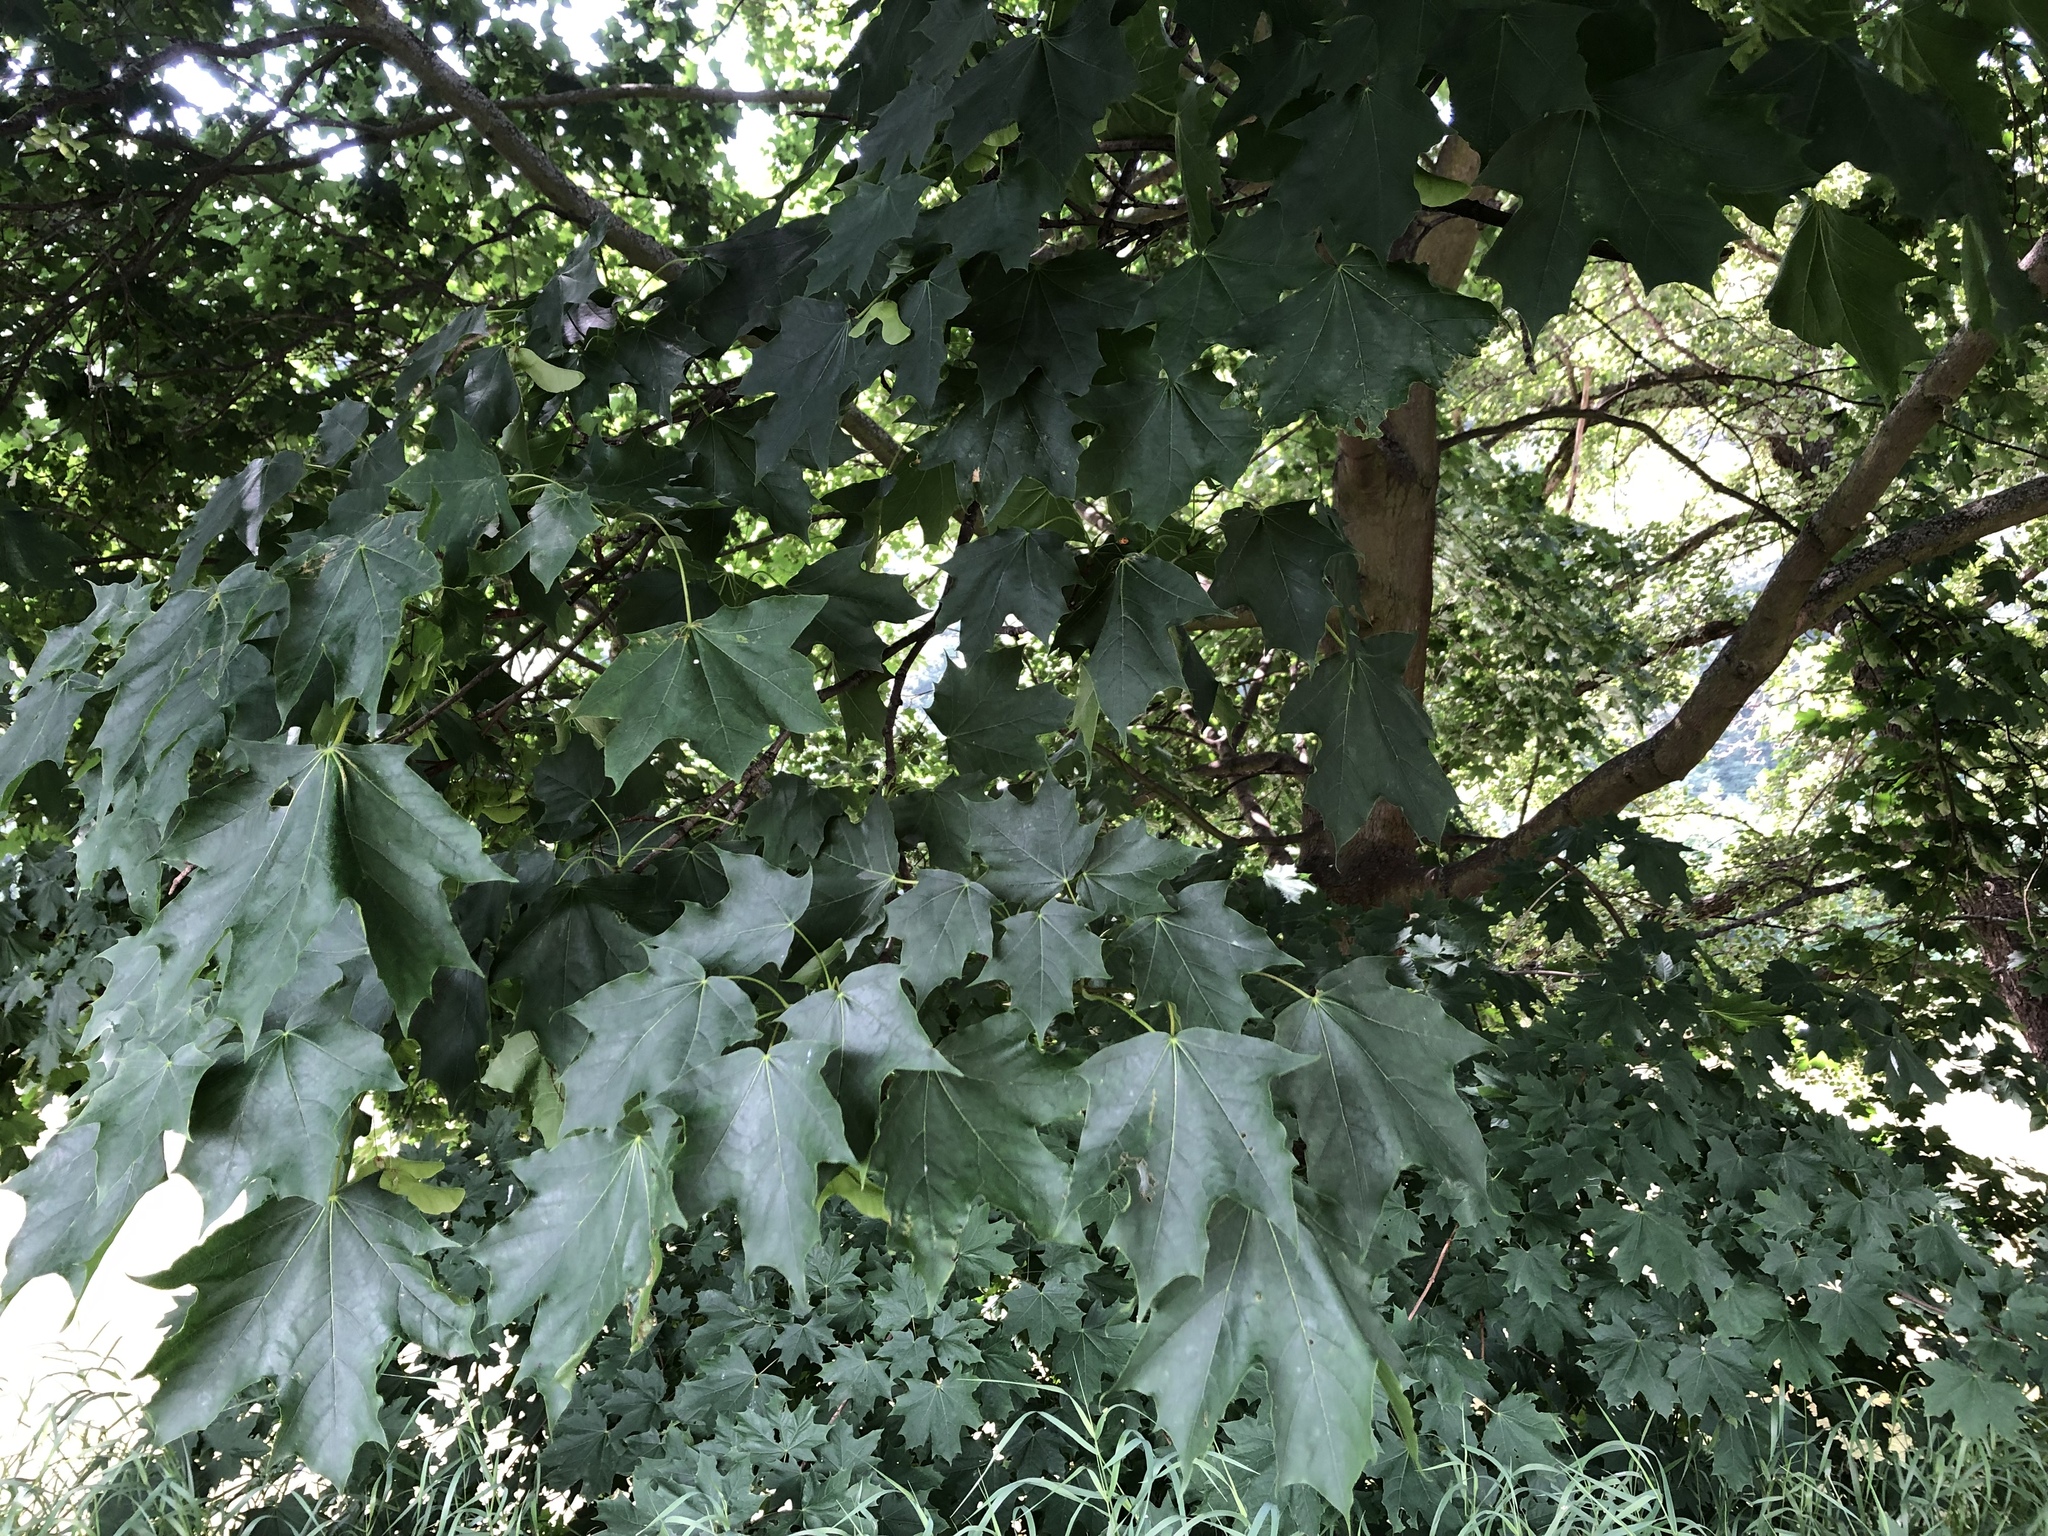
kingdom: Plantae
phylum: Tracheophyta
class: Magnoliopsida
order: Sapindales
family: Sapindaceae
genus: Acer
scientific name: Acer platanoides
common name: Norway maple
